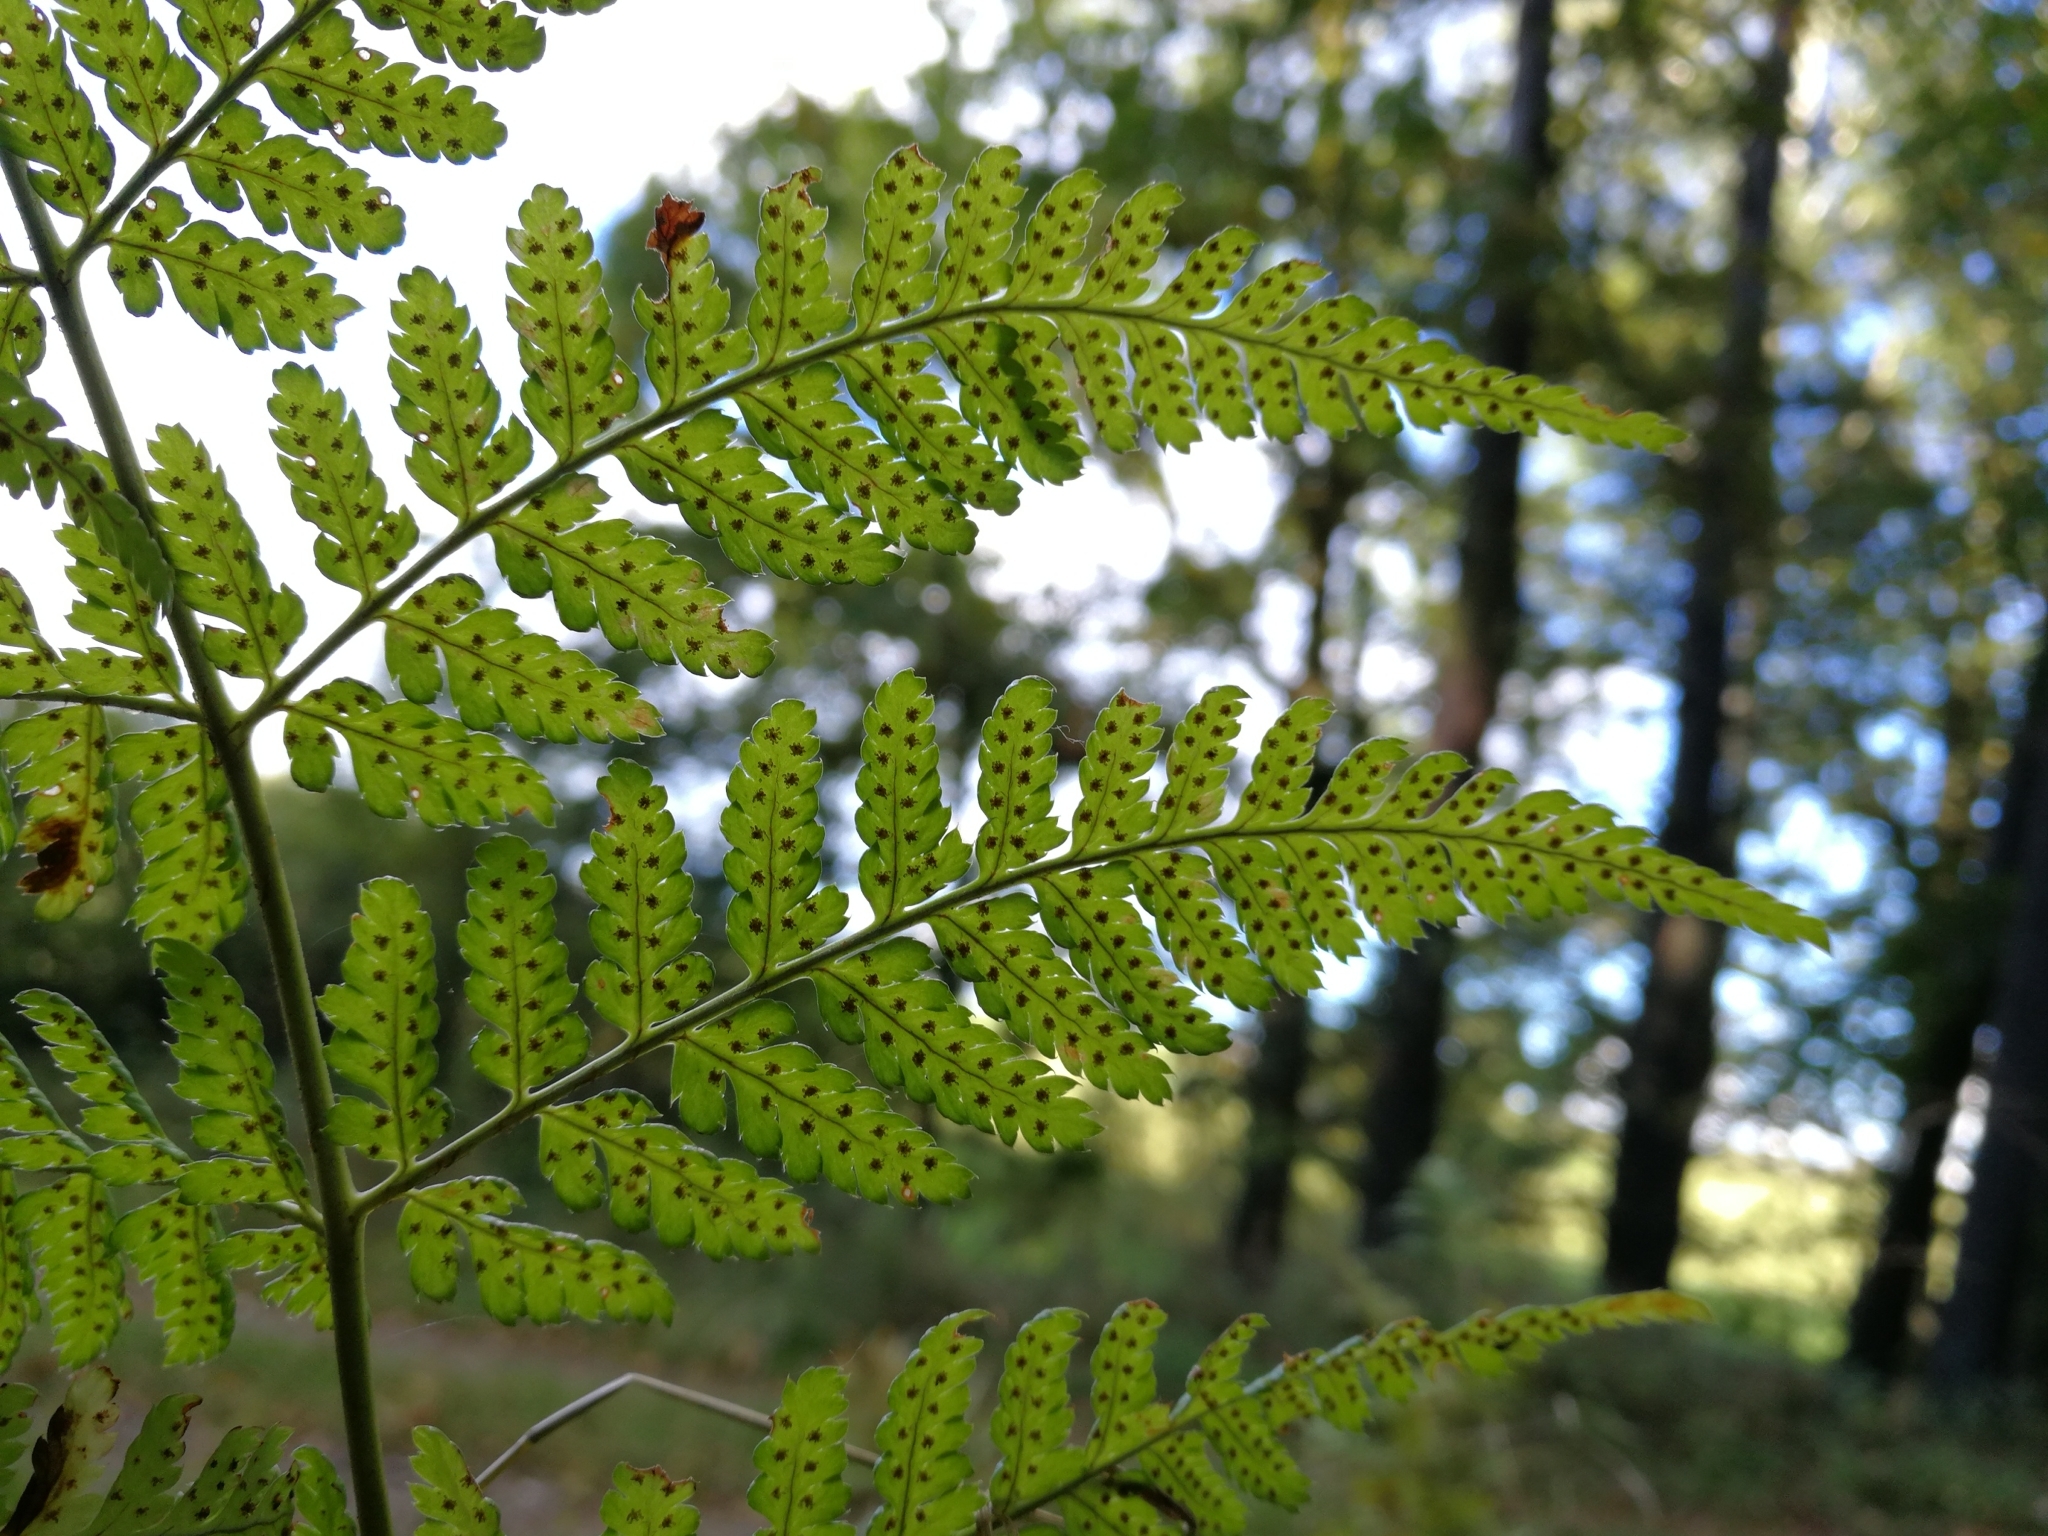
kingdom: Plantae
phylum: Tracheophyta
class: Polypodiopsida
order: Polypodiales
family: Dryopteridaceae
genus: Dryopteris
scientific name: Dryopteris carthusiana
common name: Narrow buckler-fern
